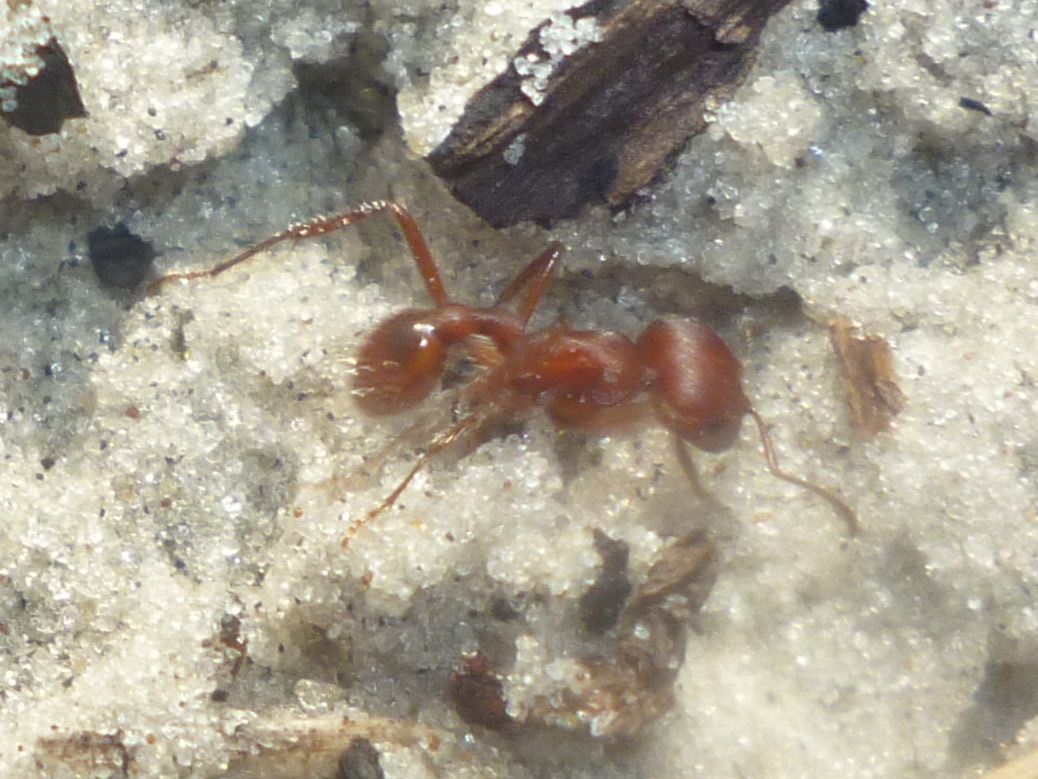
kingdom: Animalia
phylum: Arthropoda
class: Insecta
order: Hymenoptera
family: Formicidae
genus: Pogonomyrmex
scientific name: Pogonomyrmex badius
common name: Florida harvester ant
